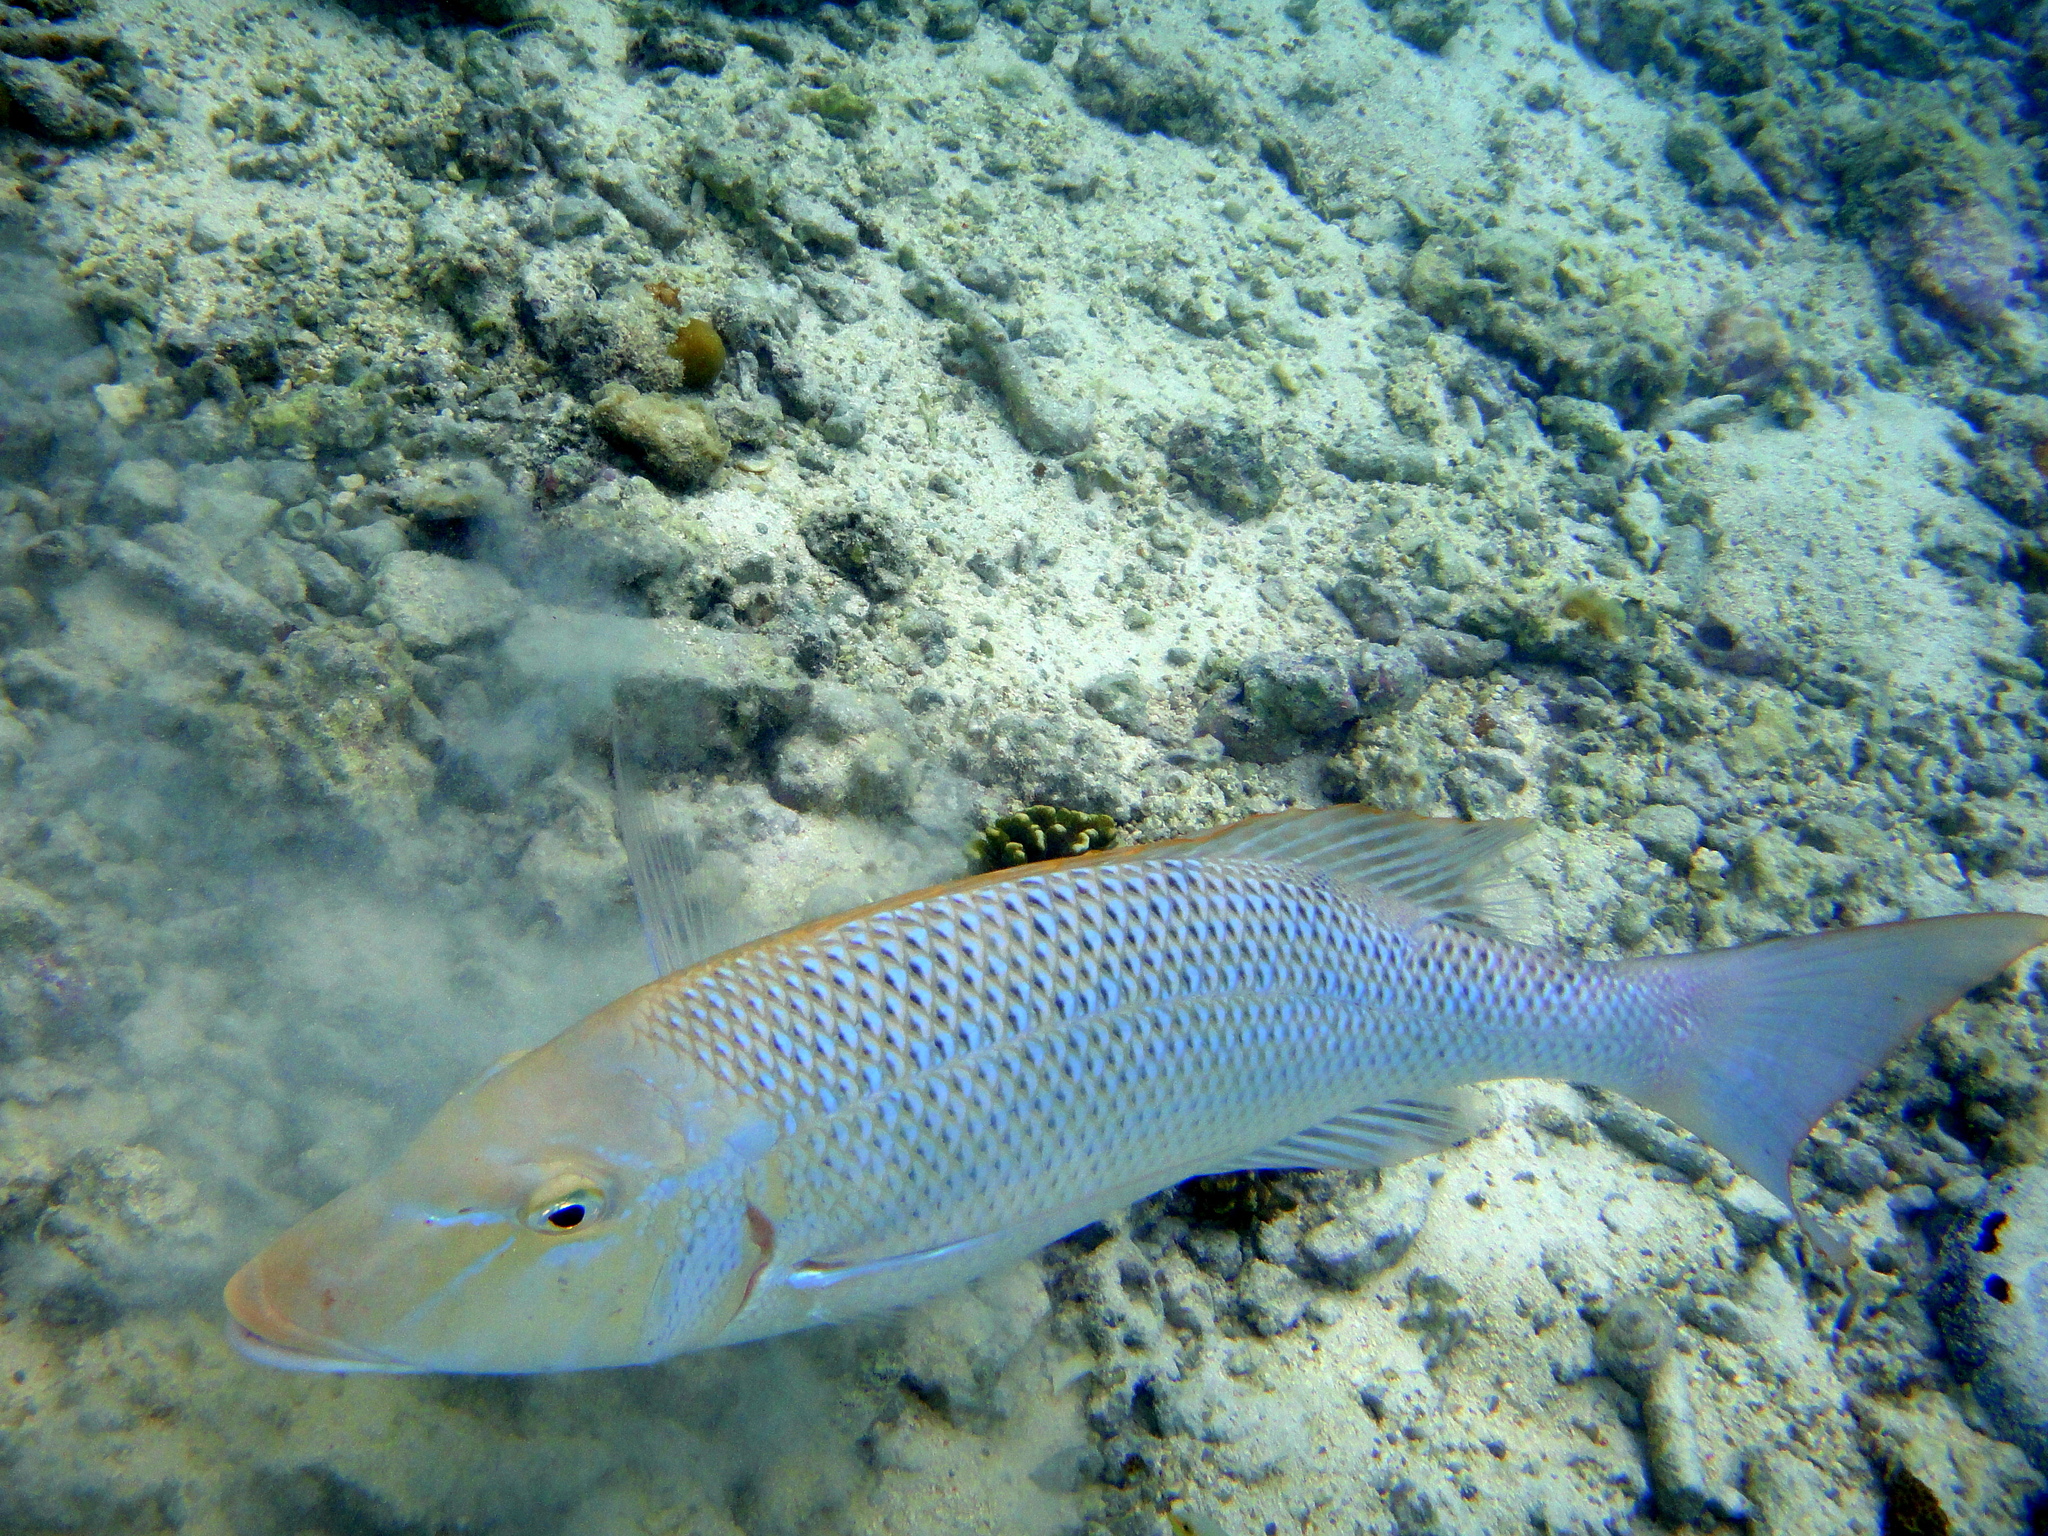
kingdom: Animalia
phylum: Chordata
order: Perciformes
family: Lethrinidae
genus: Lethrinus
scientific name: Lethrinus nebulosus
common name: Spangled emperor
